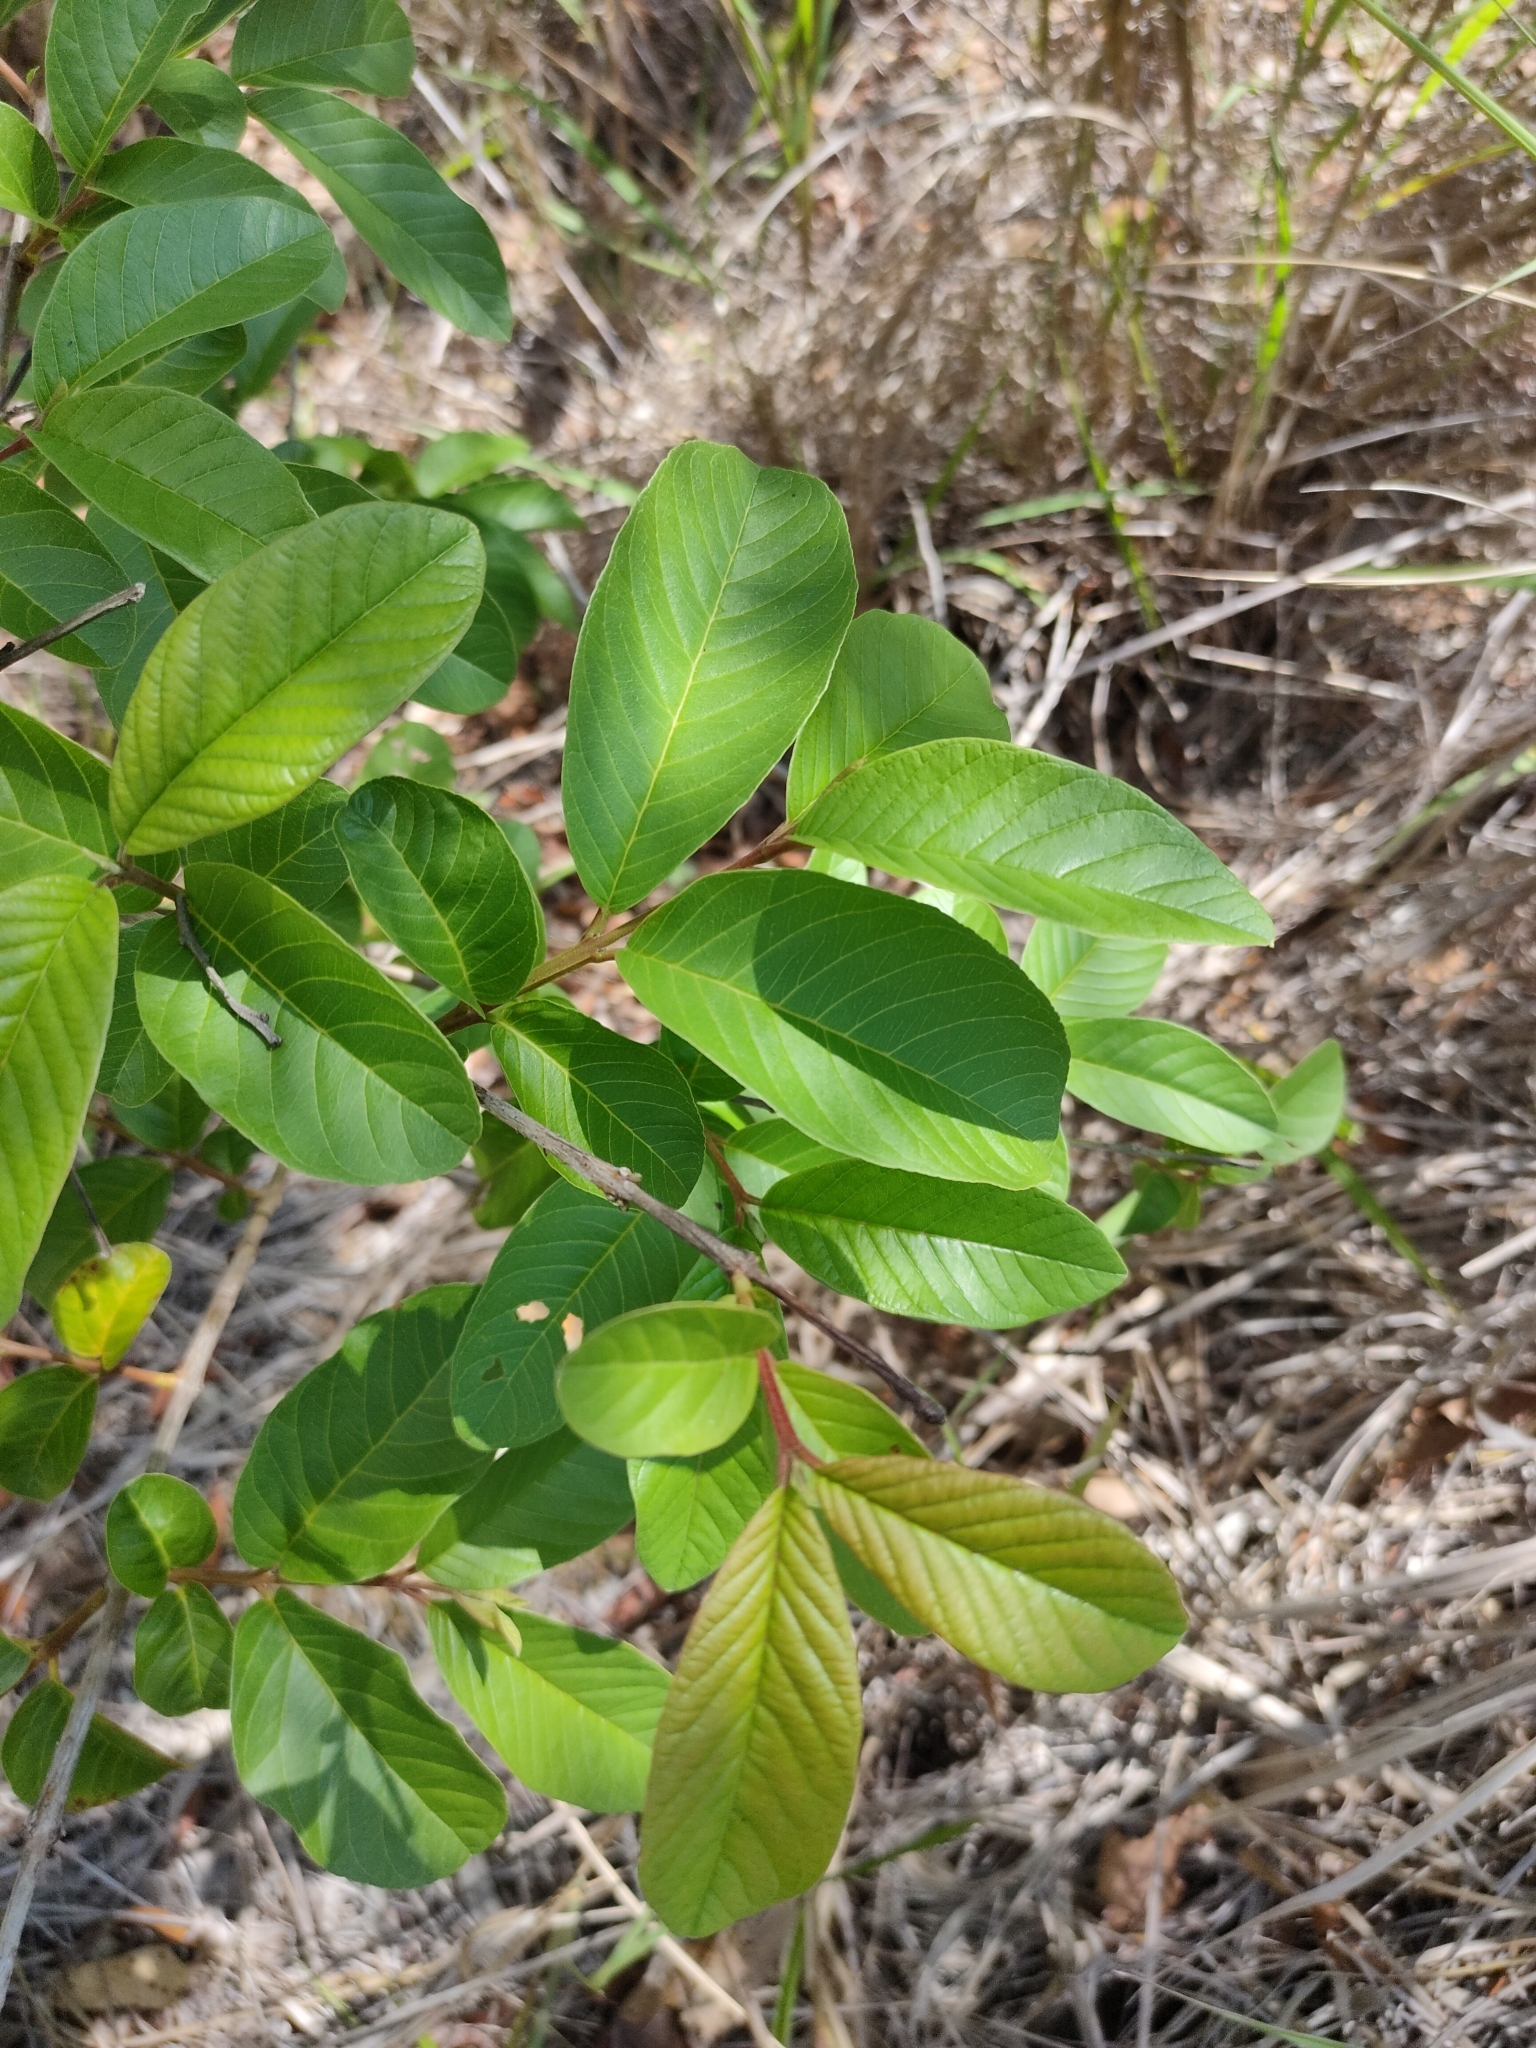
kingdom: Plantae
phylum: Tracheophyta
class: Magnoliopsida
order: Myrtales
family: Myrtaceae
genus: Psidium
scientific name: Psidium guajava
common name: Guava
